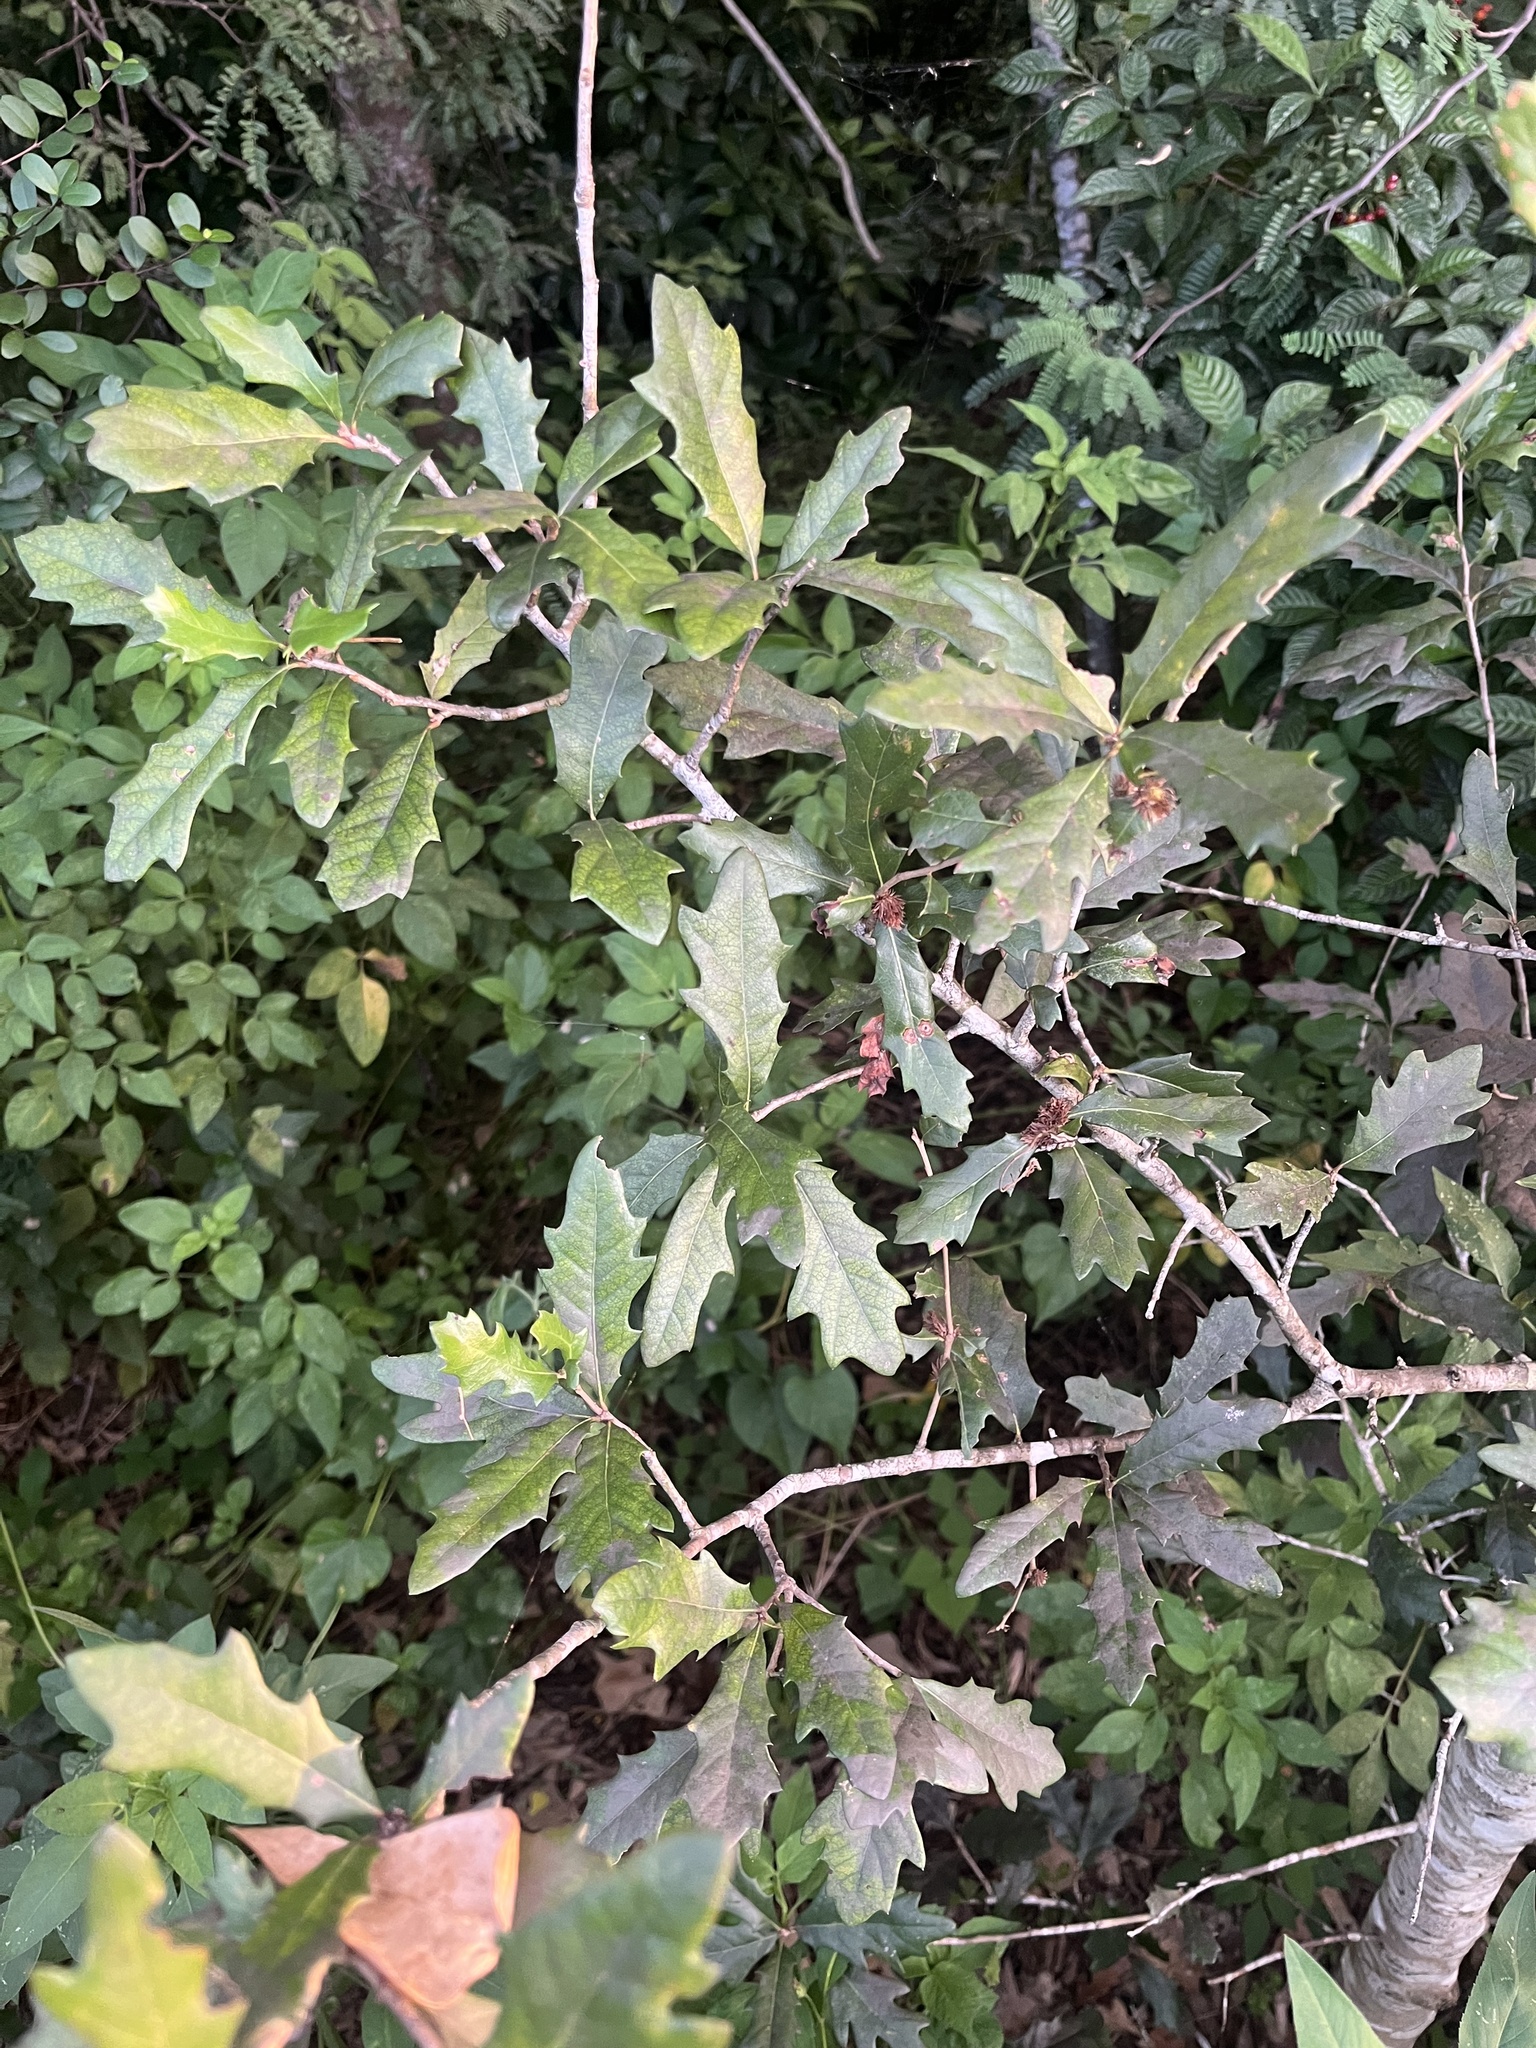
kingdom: Animalia
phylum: Arthropoda
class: Insecta
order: Hymenoptera
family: Cynipidae
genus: Andricus
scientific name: Andricus quercusfoliatus
